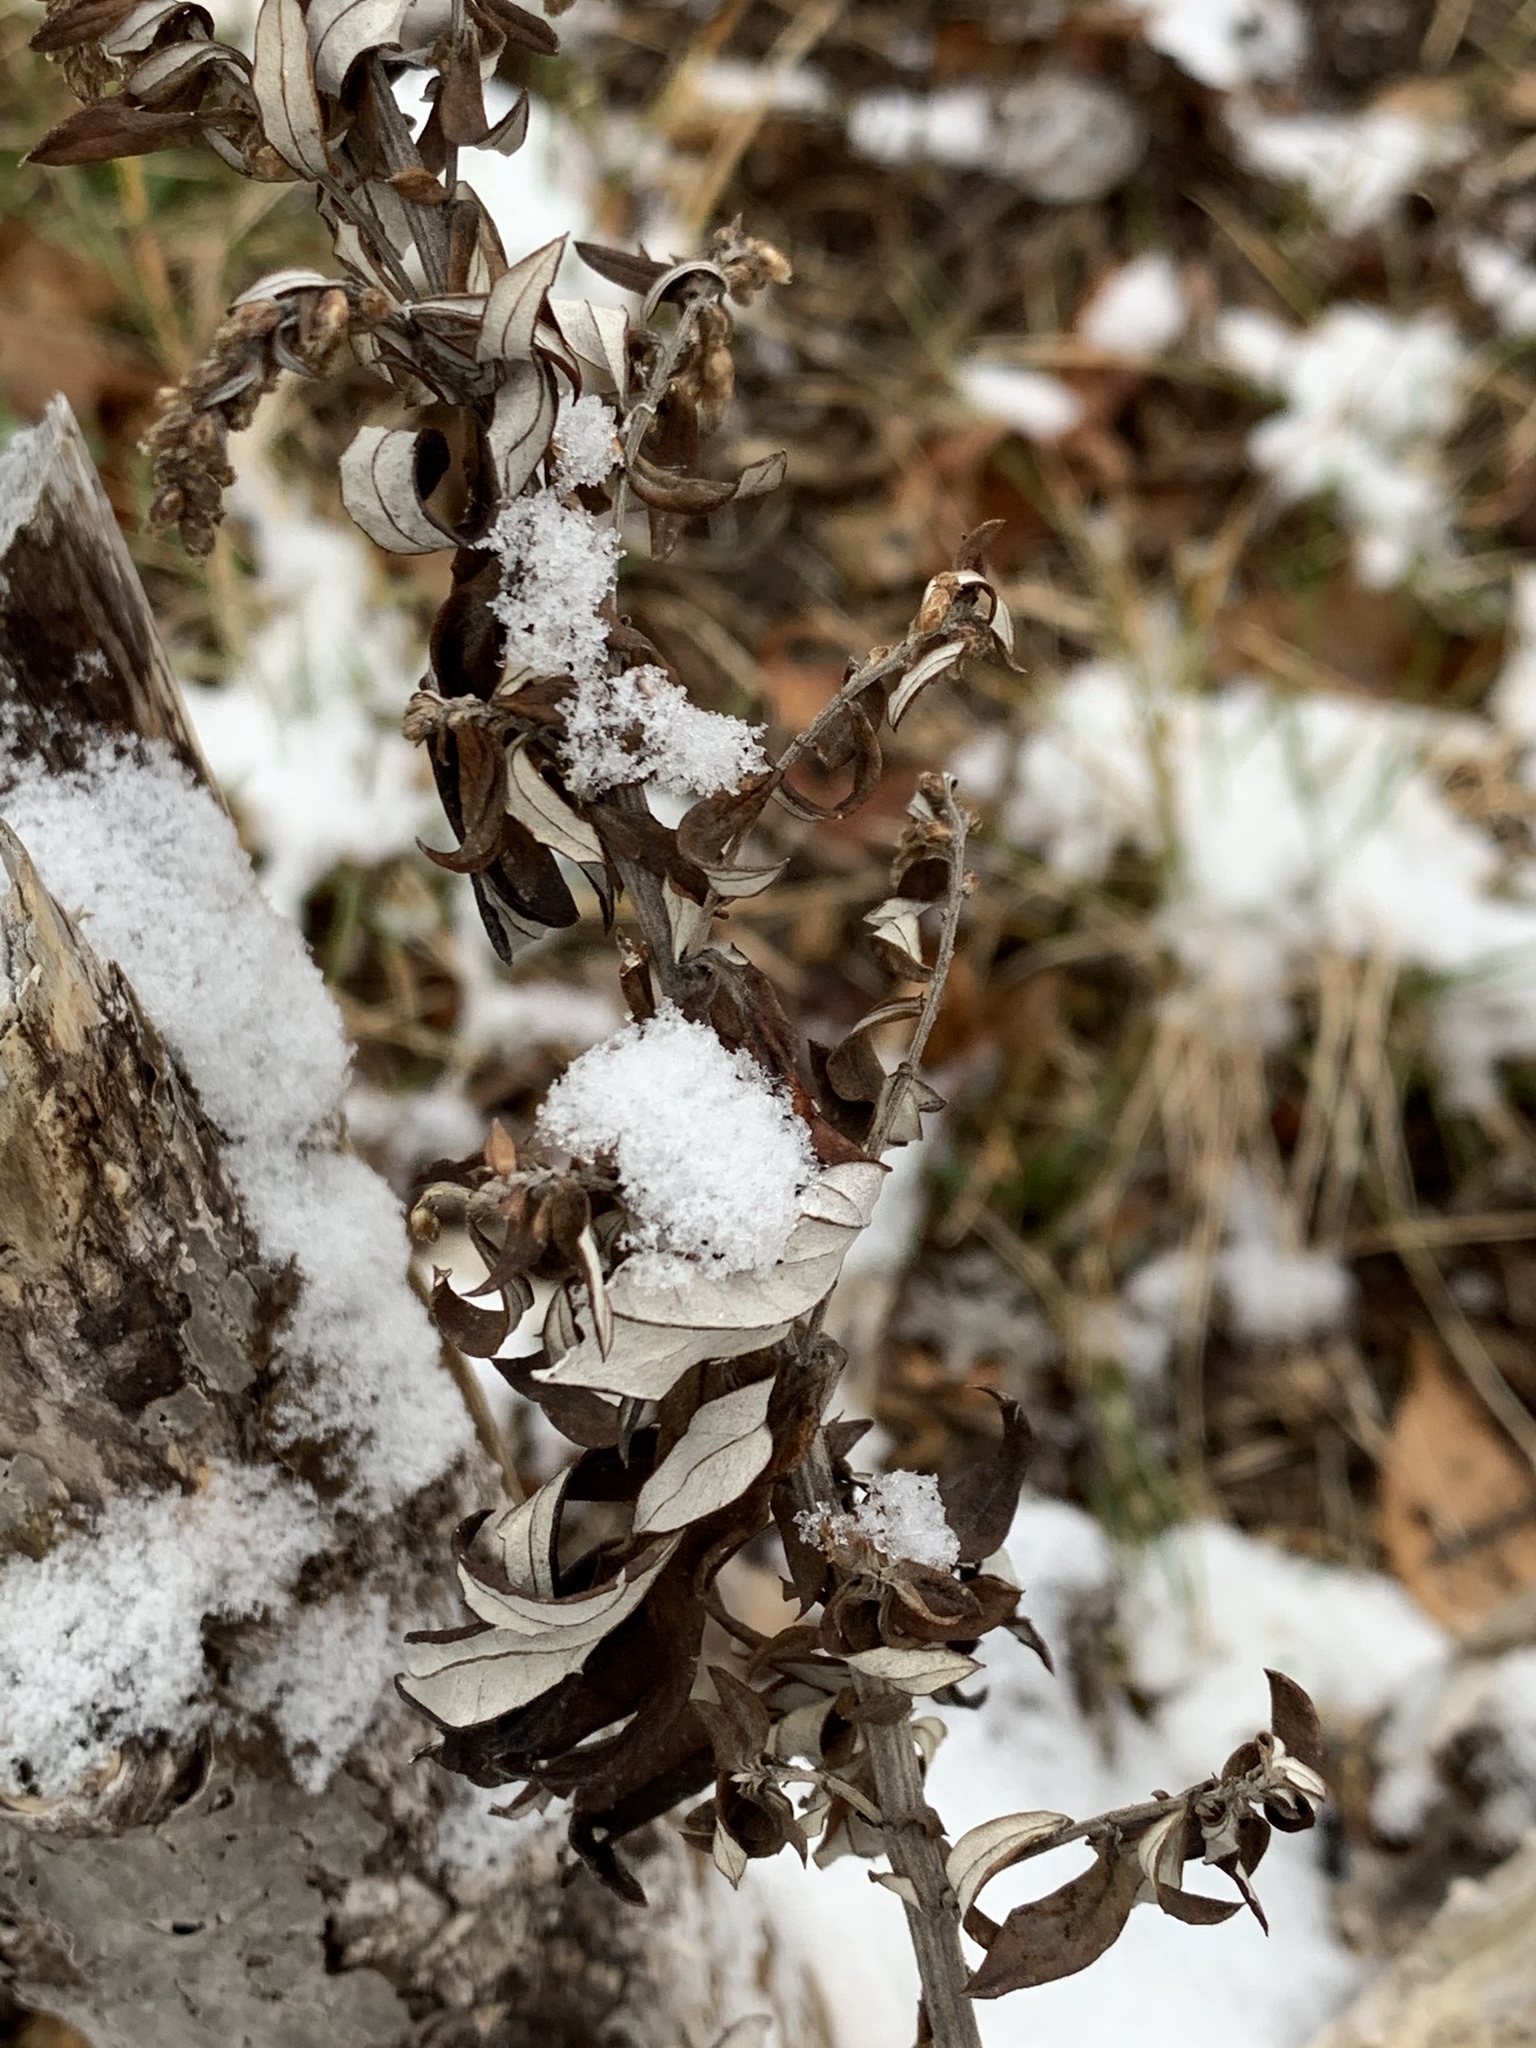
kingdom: Plantae
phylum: Tracheophyta
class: Magnoliopsida
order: Asterales
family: Asteraceae
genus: Artemisia
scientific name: Artemisia vulgaris
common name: Mugwort
